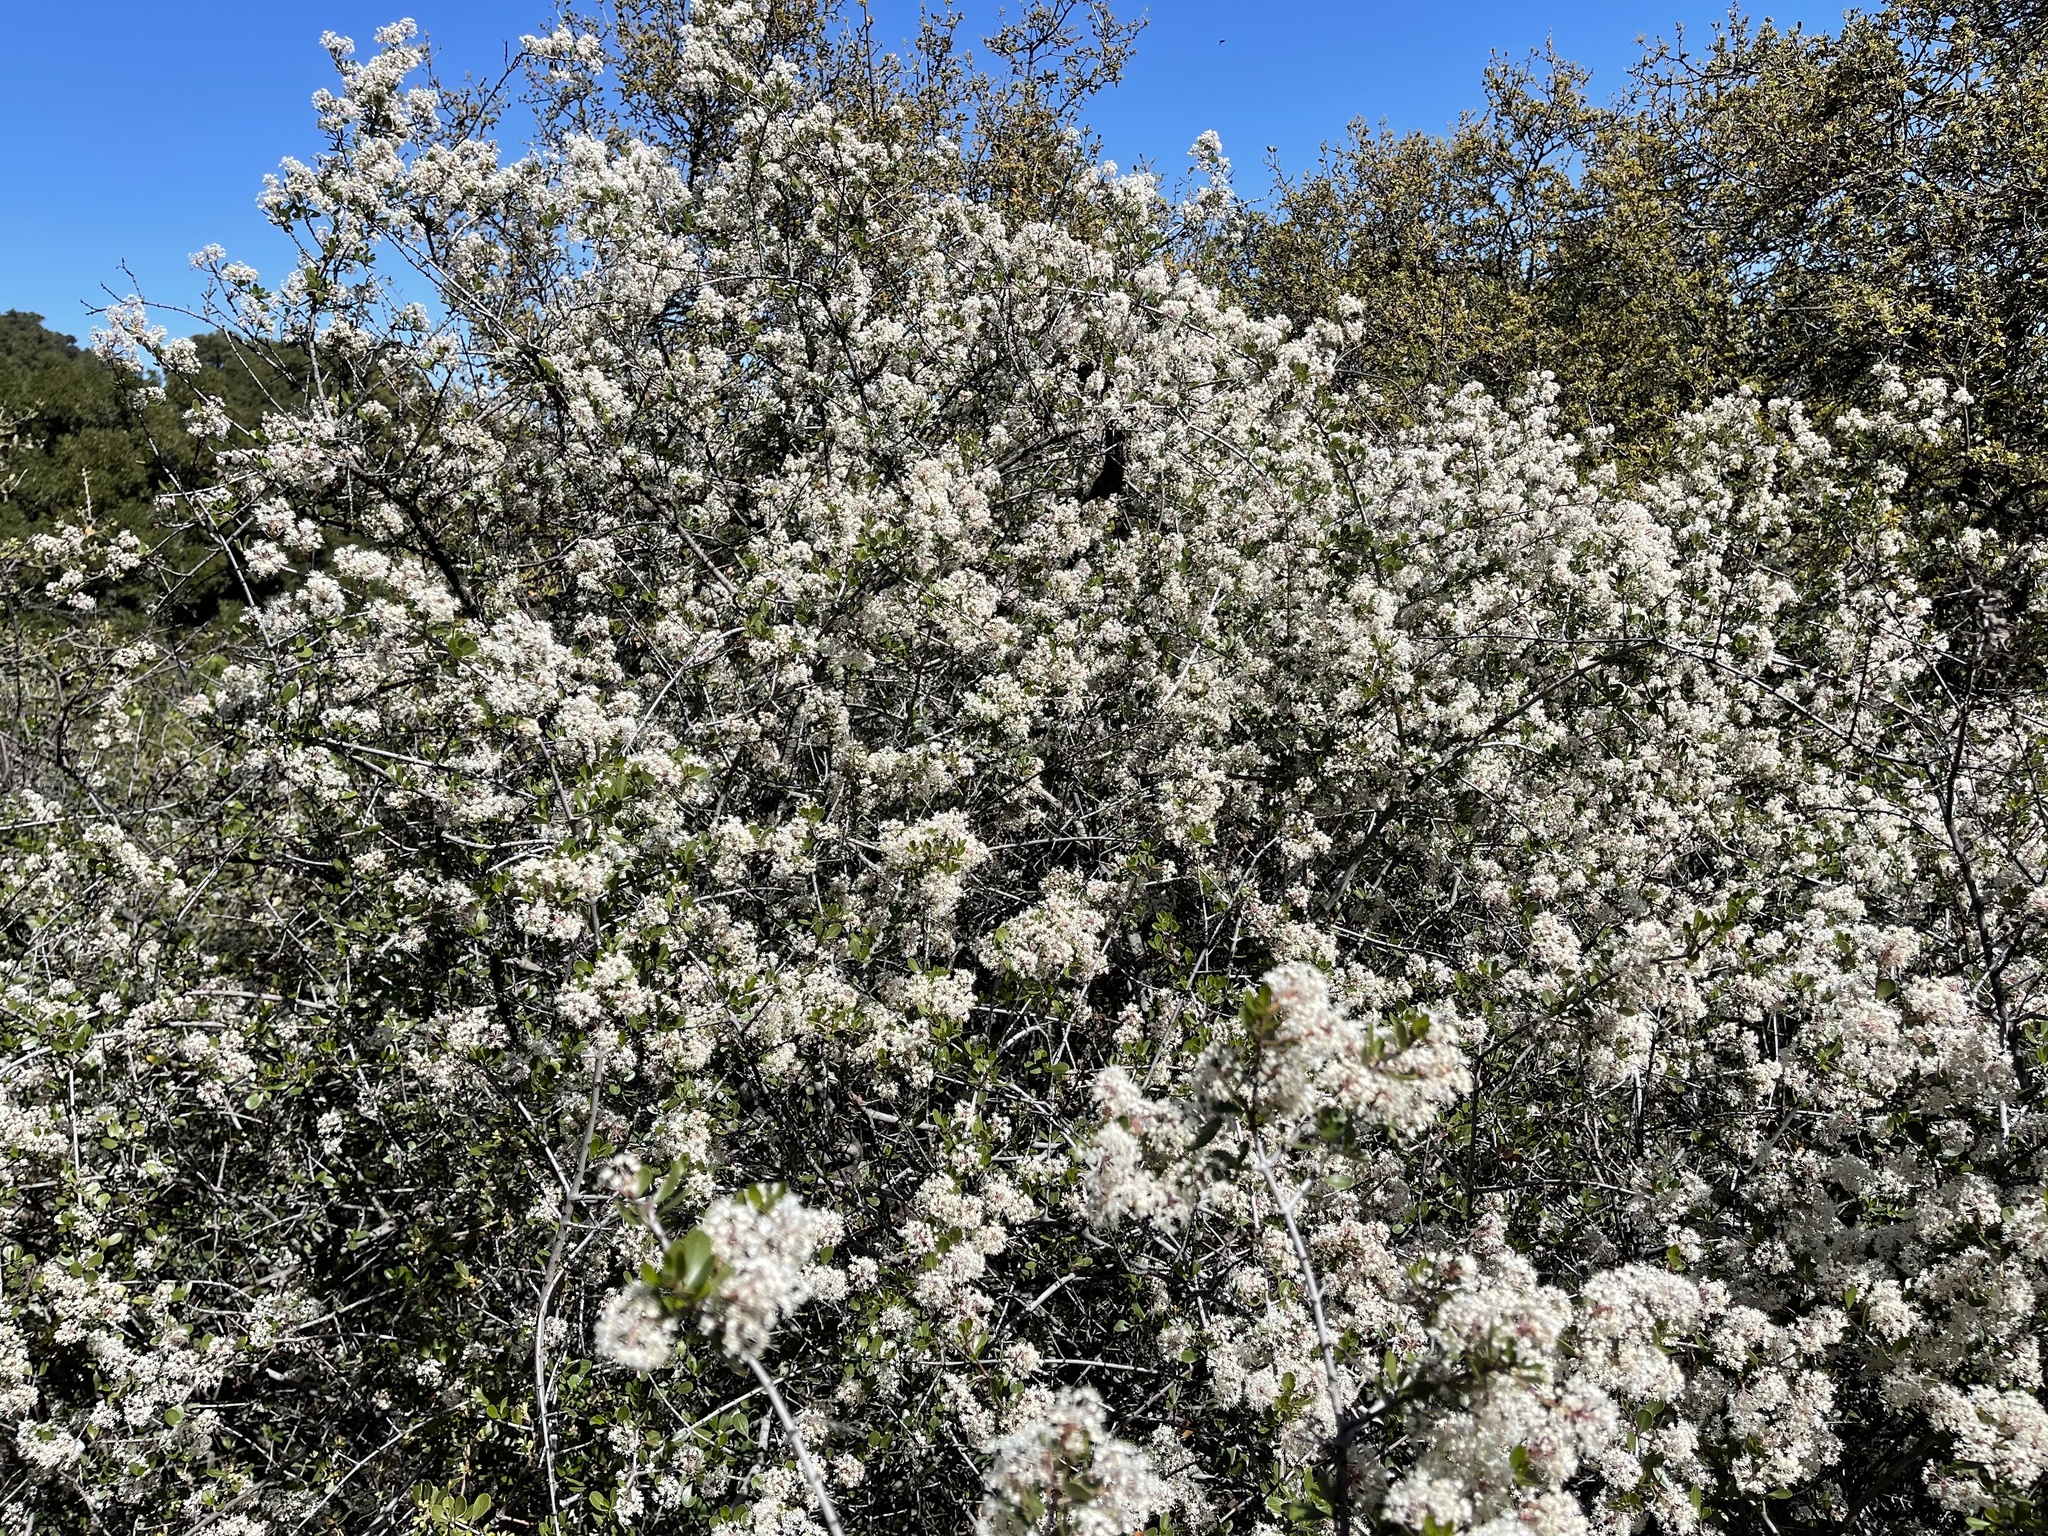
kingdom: Plantae
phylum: Tracheophyta
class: Magnoliopsida
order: Rosales
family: Rhamnaceae
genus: Ceanothus
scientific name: Ceanothus cuneatus
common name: Cuneate ceanothus
